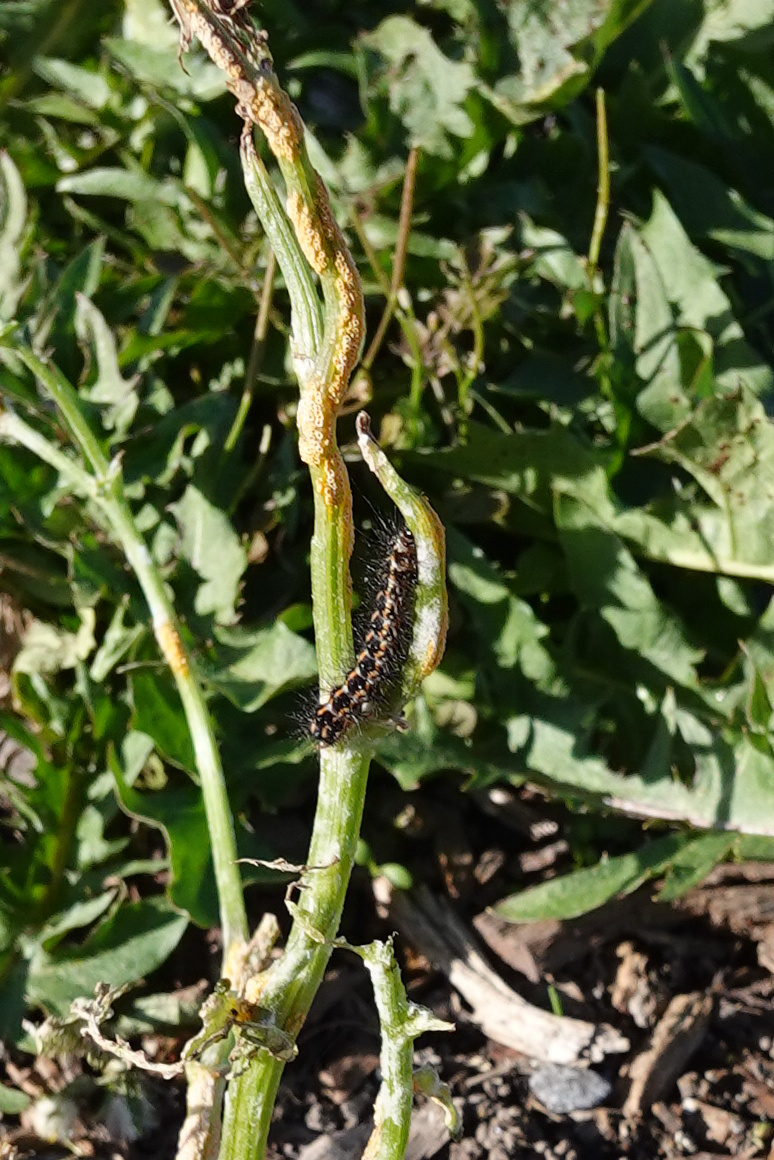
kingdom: Animalia
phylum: Arthropoda
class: Insecta
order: Lepidoptera
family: Erebidae
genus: Nyctemera
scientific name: Nyctemera annulatum
